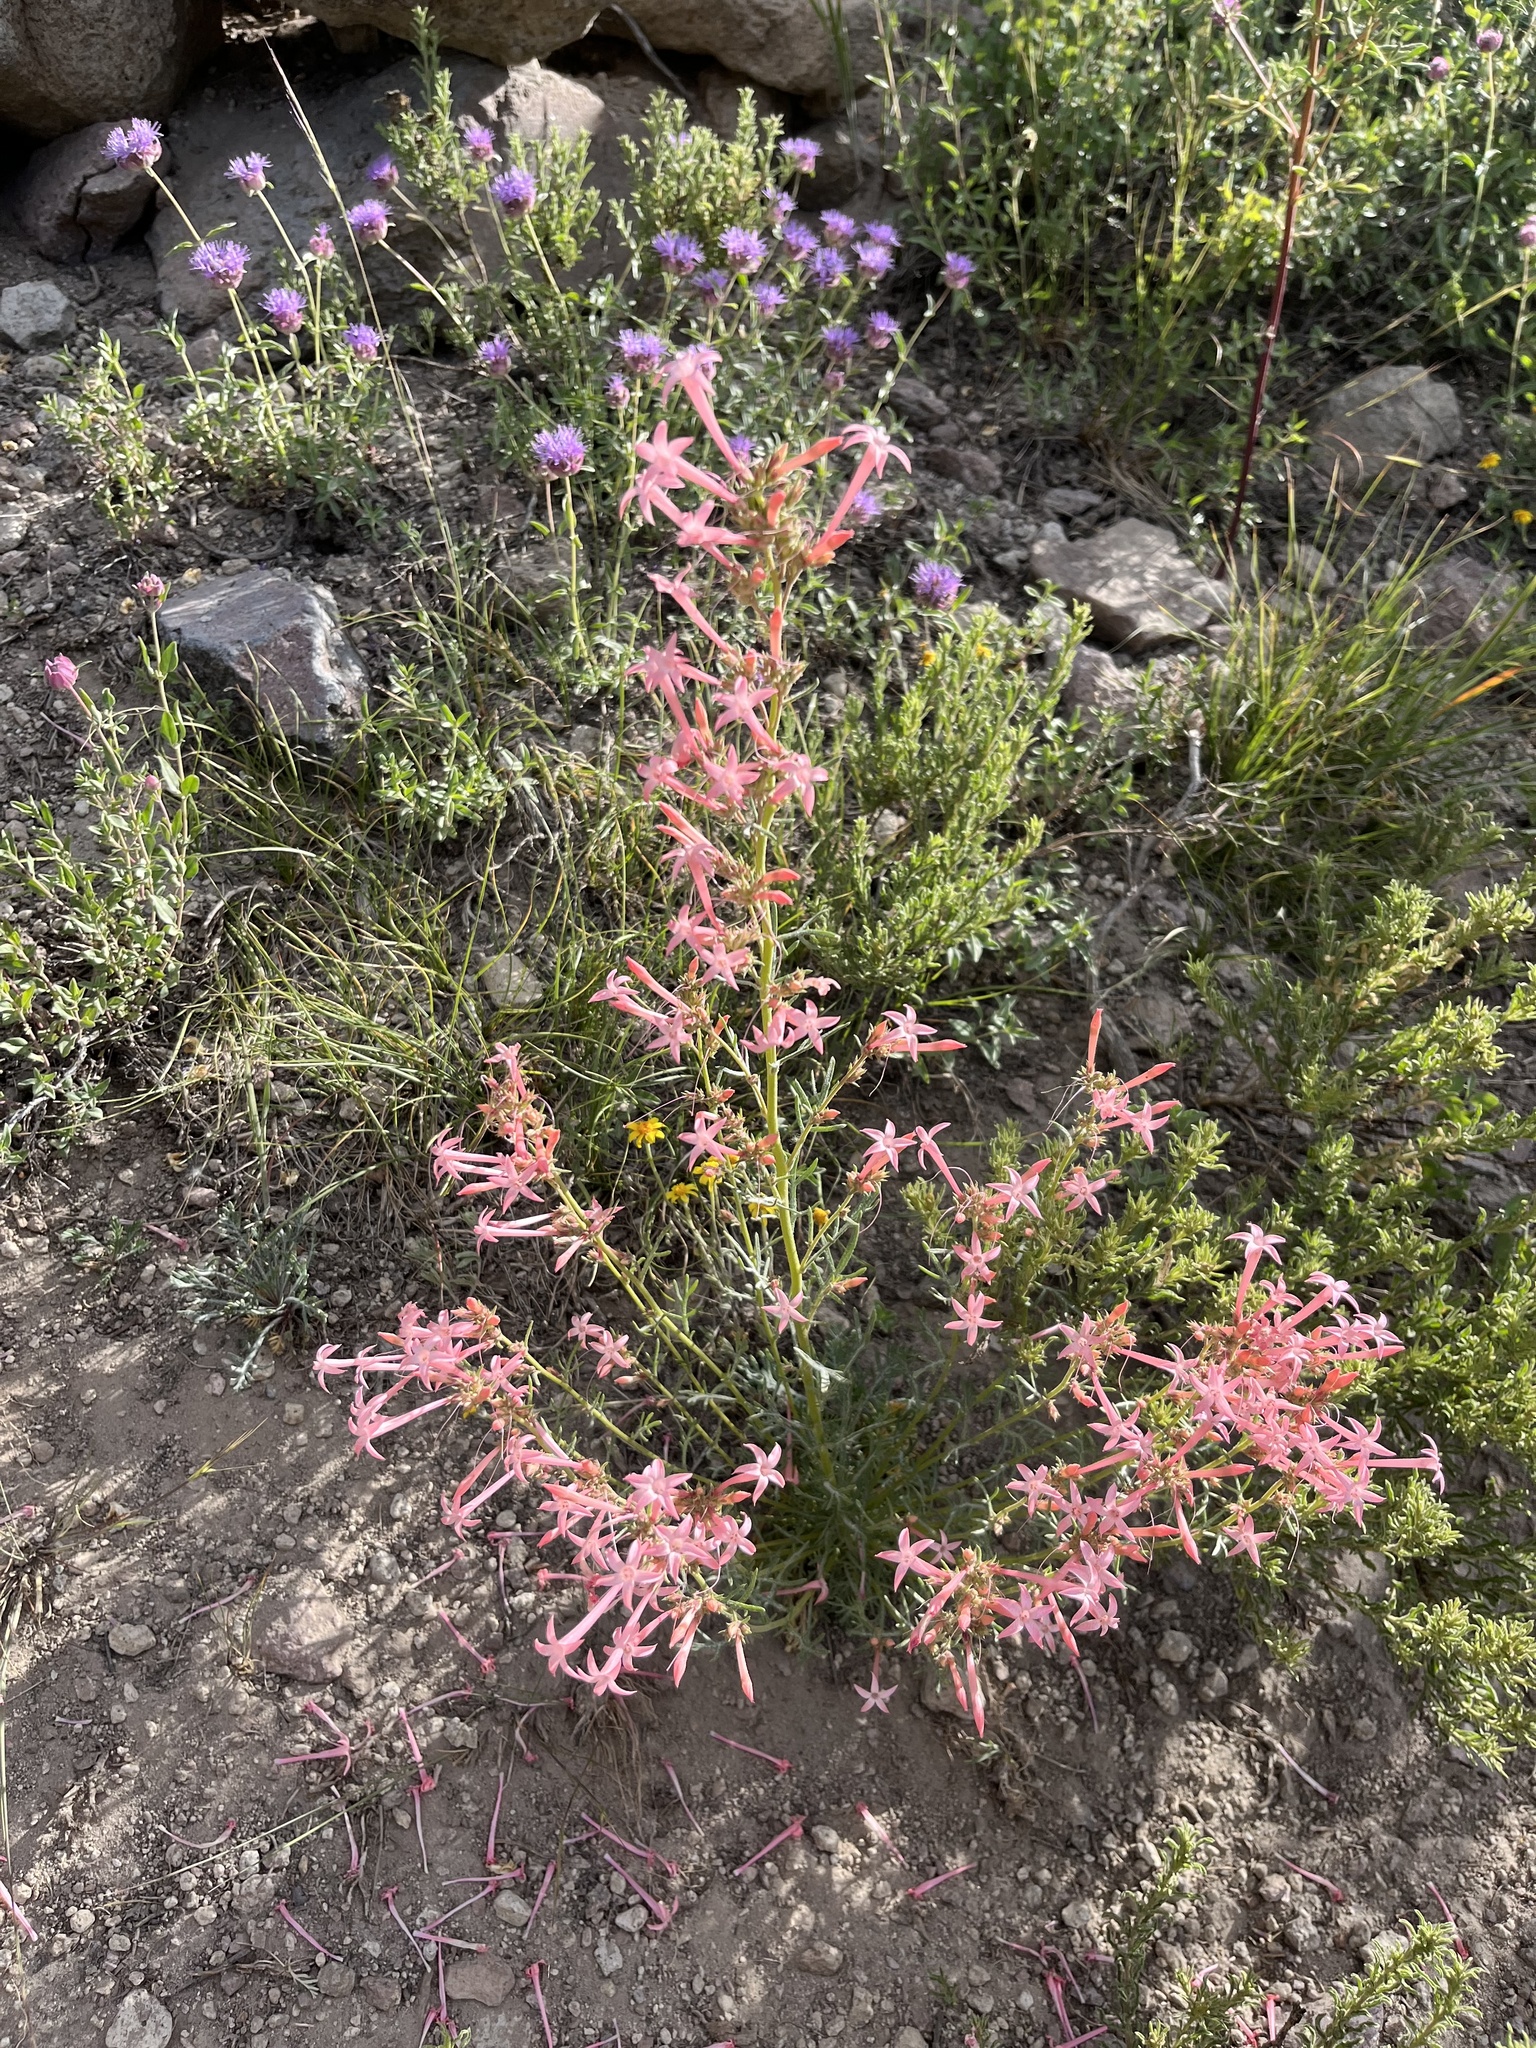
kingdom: Plantae
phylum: Tracheophyta
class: Magnoliopsida
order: Ericales
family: Polemoniaceae
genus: Ipomopsis
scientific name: Ipomopsis tenuituba
